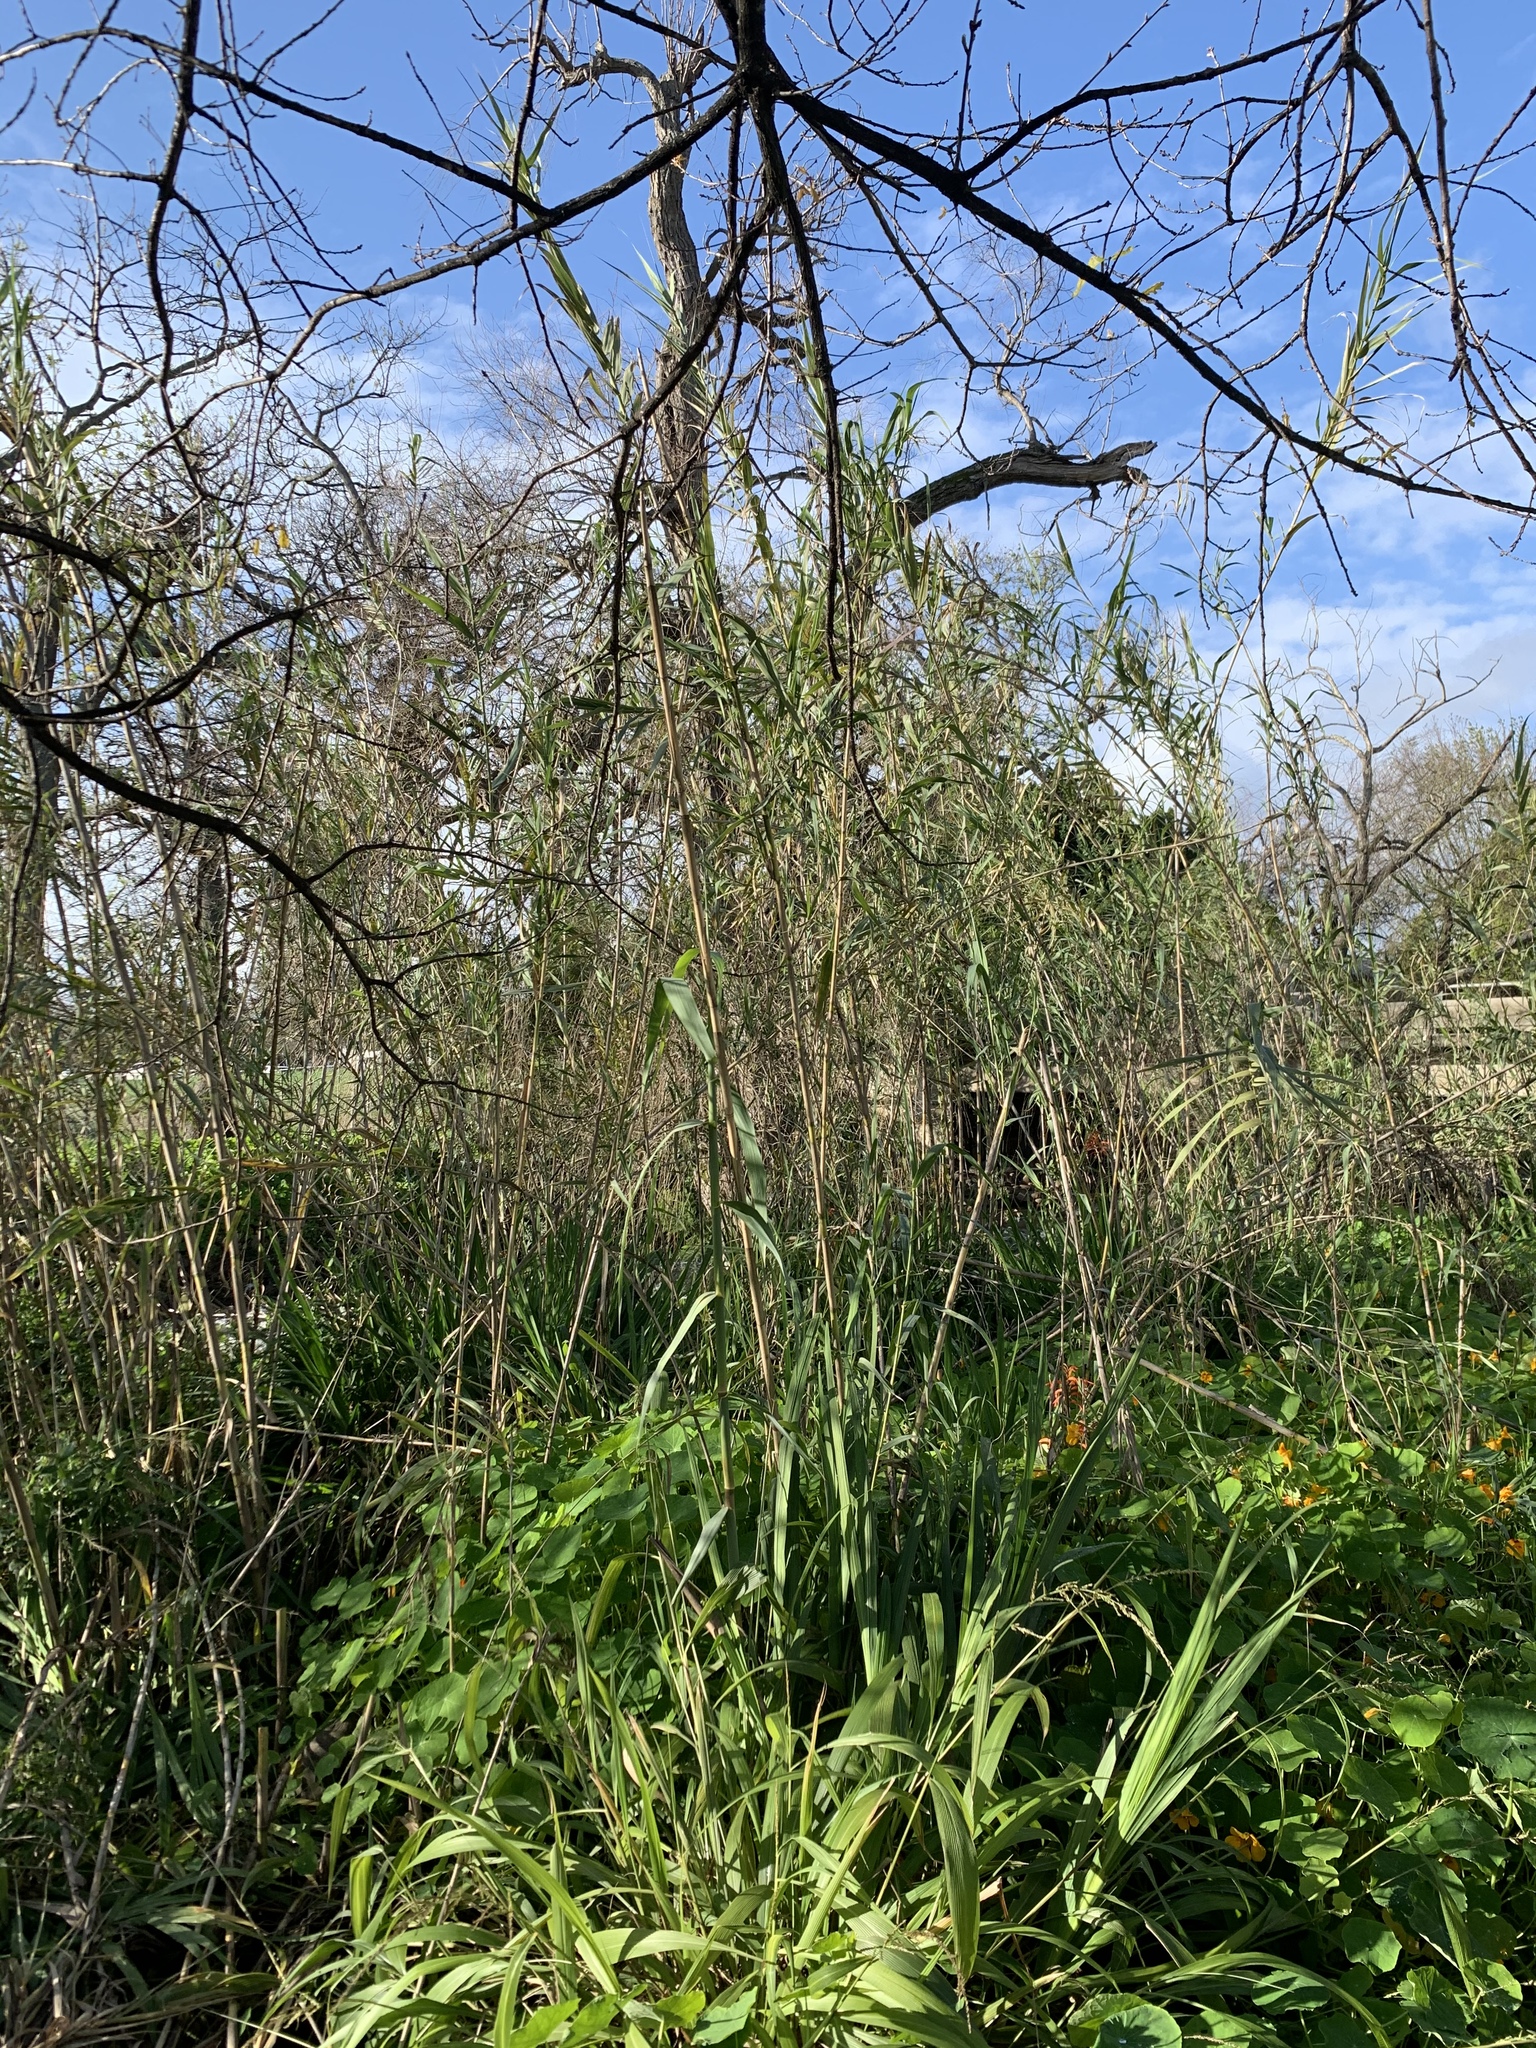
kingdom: Plantae
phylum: Tracheophyta
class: Liliopsida
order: Poales
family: Poaceae
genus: Arundo
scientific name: Arundo donax
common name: Giant reed
